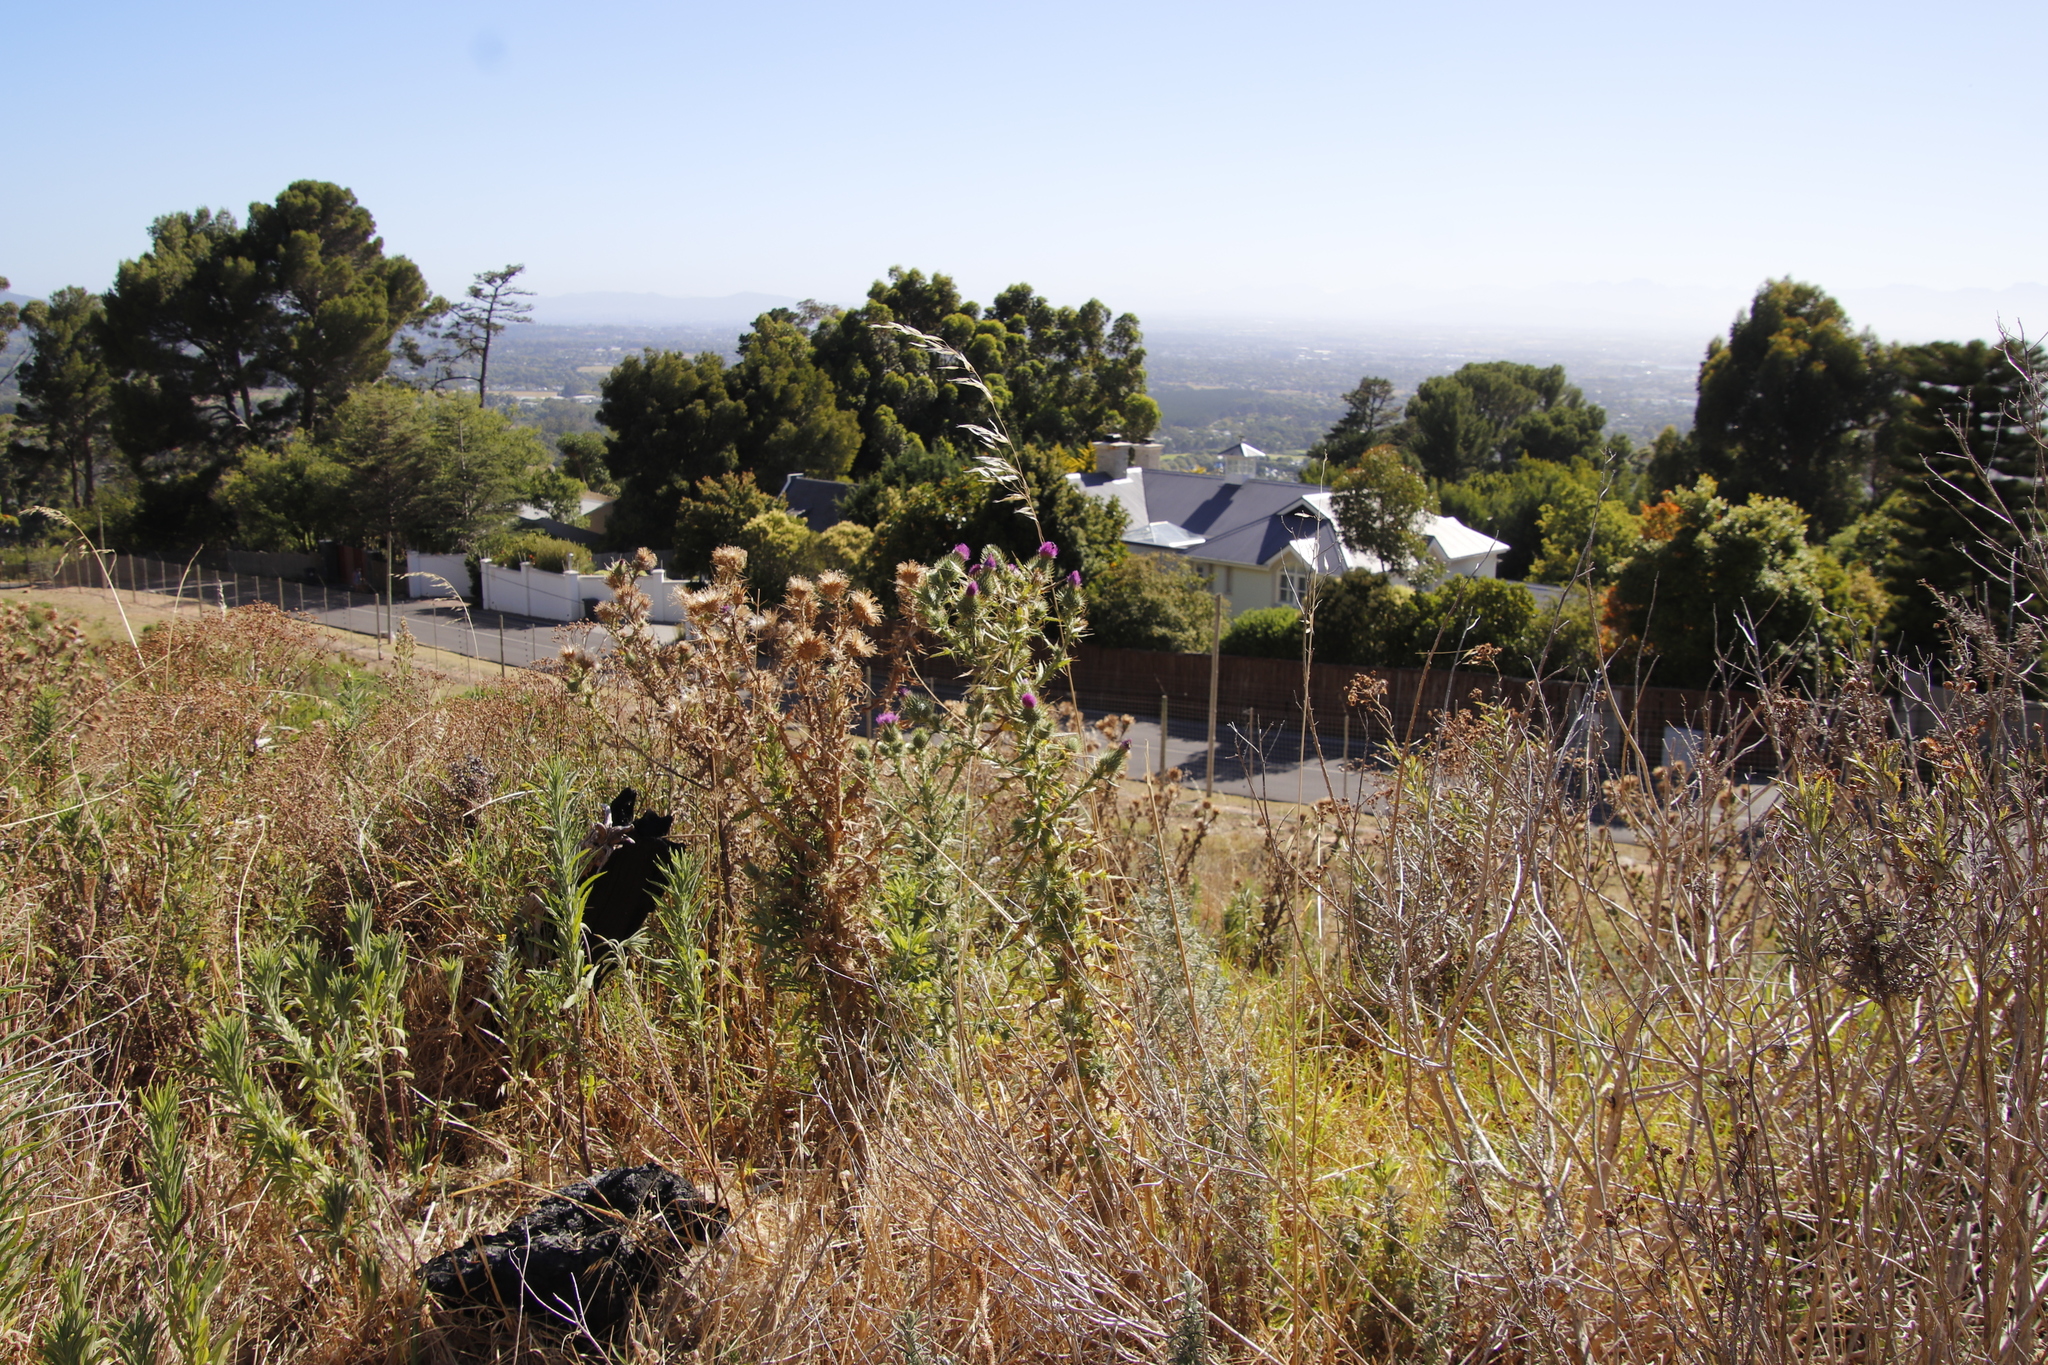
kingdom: Plantae
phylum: Tracheophyta
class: Magnoliopsida
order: Asterales
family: Asteraceae
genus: Cirsium
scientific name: Cirsium vulgare
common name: Bull thistle
